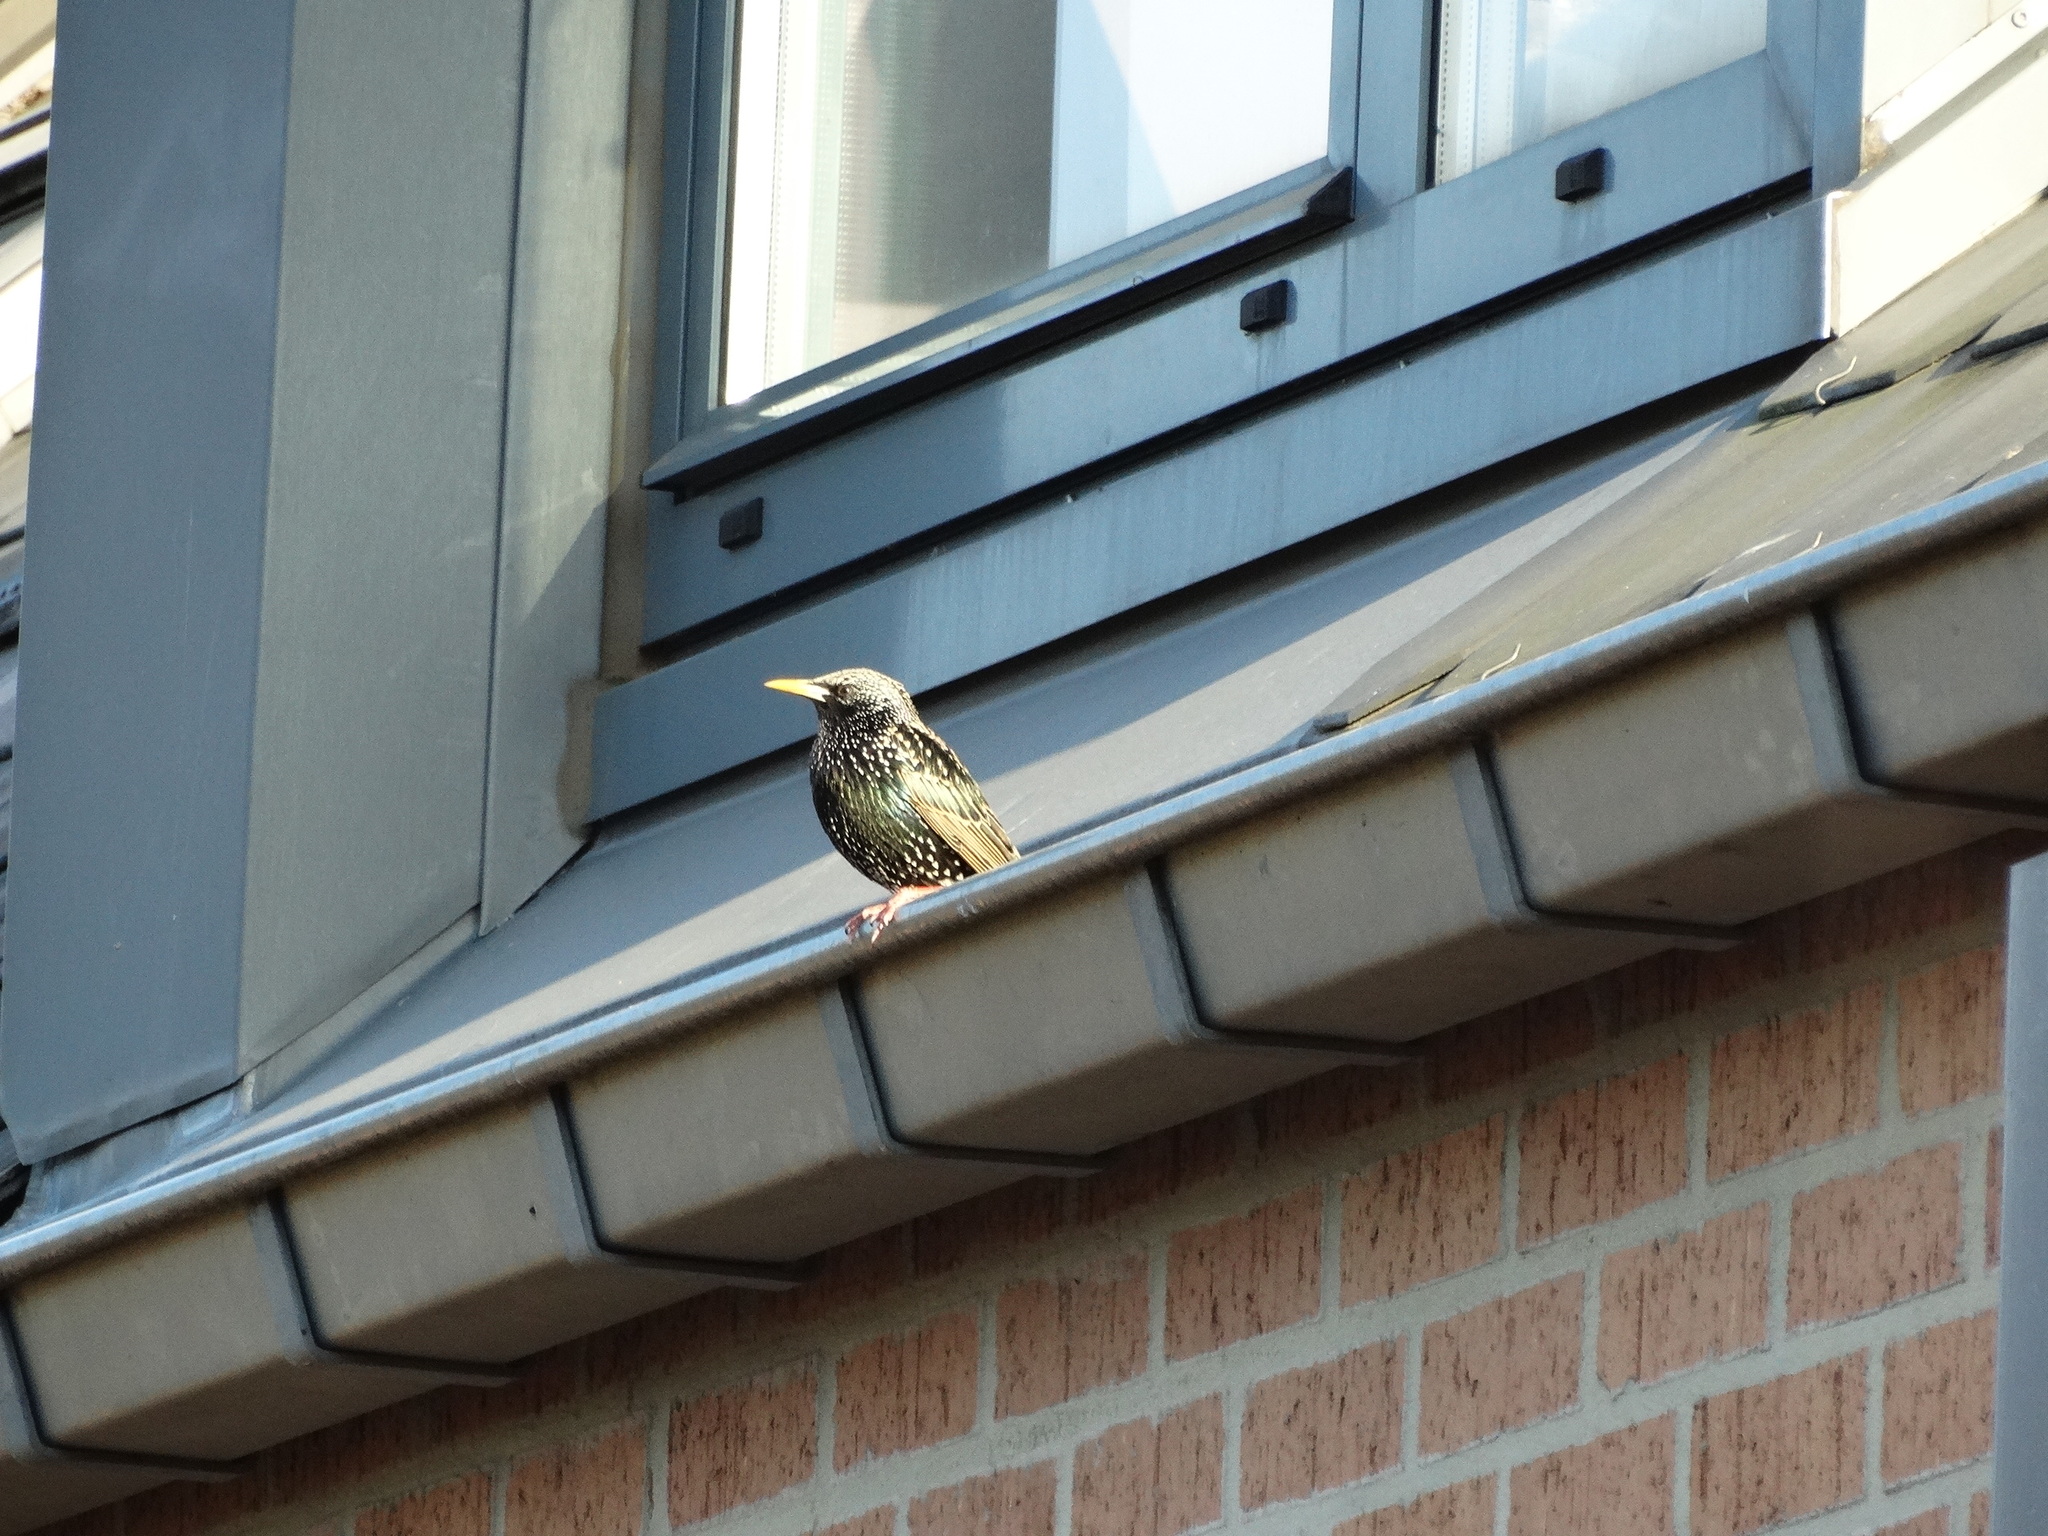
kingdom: Animalia
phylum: Chordata
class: Aves
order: Passeriformes
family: Sturnidae
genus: Sturnus
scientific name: Sturnus vulgaris
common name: Common starling
